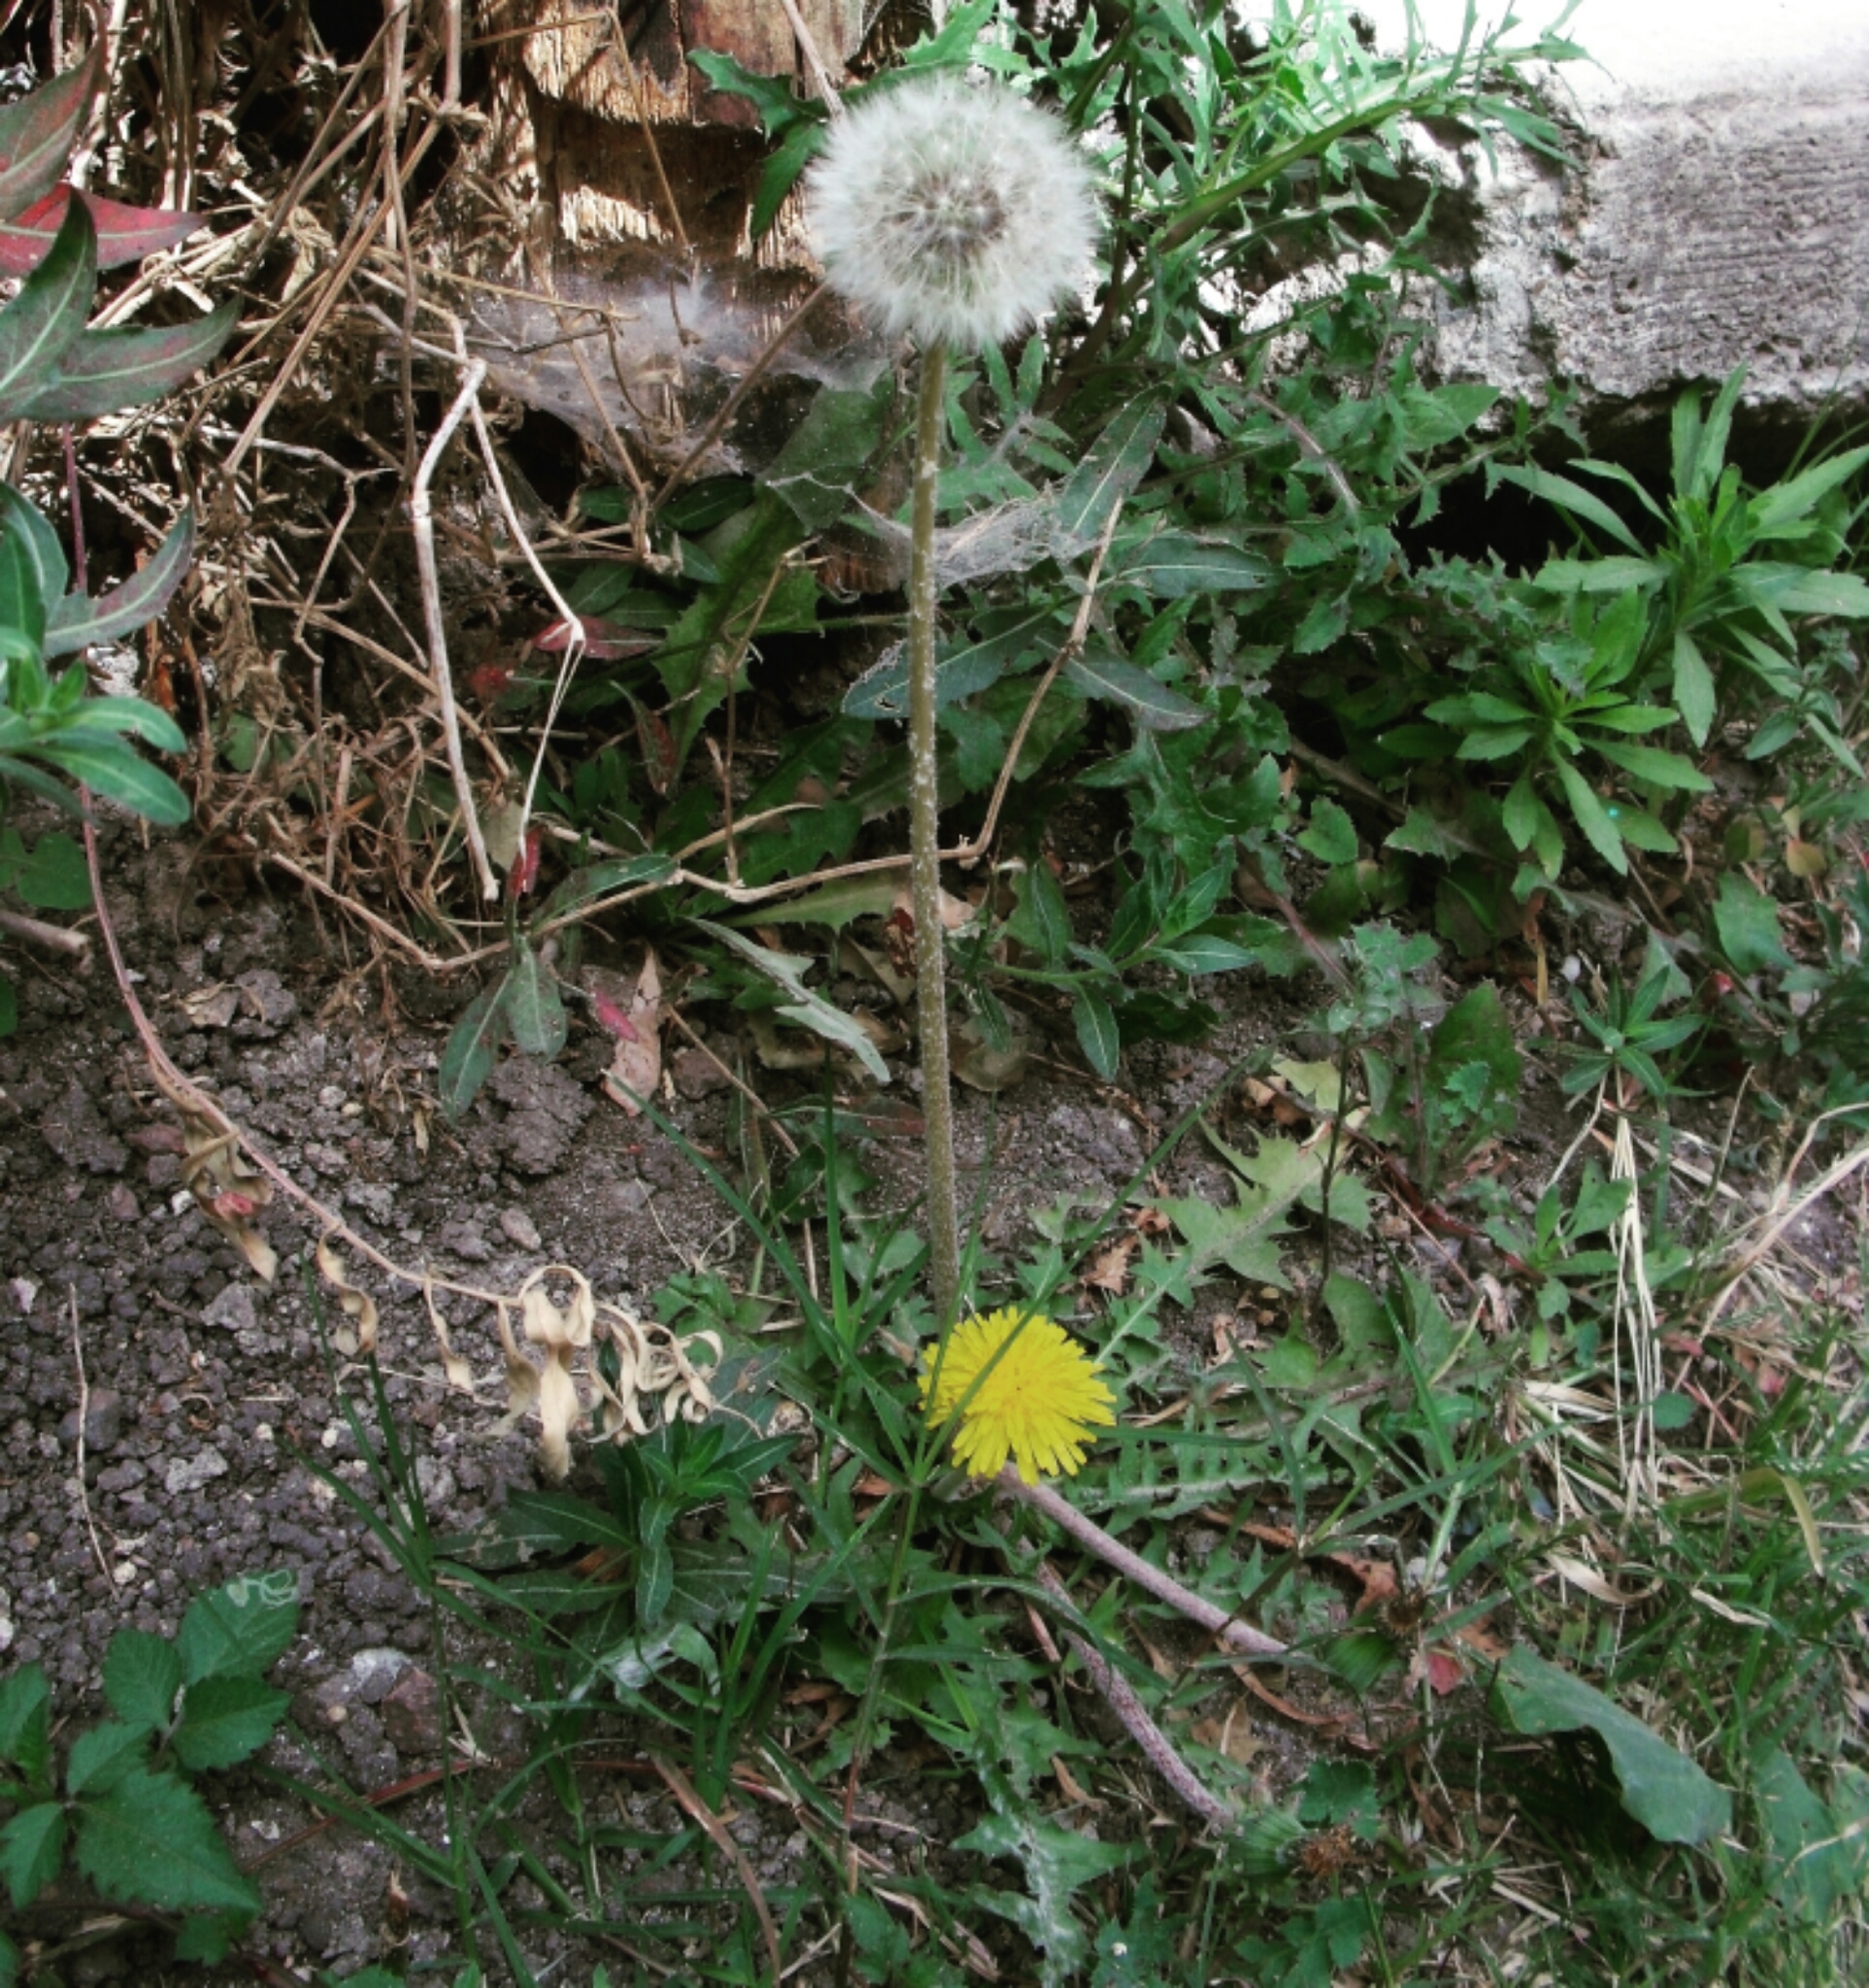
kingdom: Plantae
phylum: Tracheophyta
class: Magnoliopsida
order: Asterales
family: Asteraceae
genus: Taraxacum
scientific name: Taraxacum officinale
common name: Common dandelion
